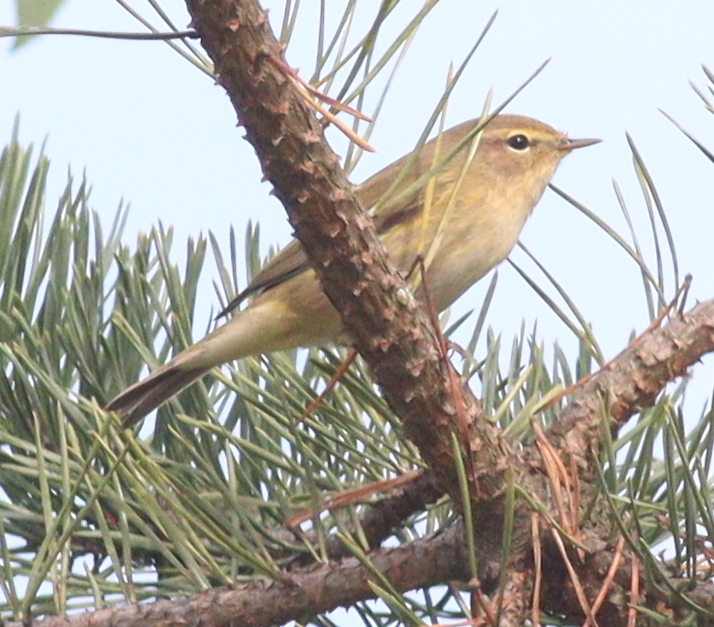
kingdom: Animalia
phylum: Chordata
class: Aves
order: Passeriformes
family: Phylloscopidae
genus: Phylloscopus
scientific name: Phylloscopus collybita
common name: Common chiffchaff
